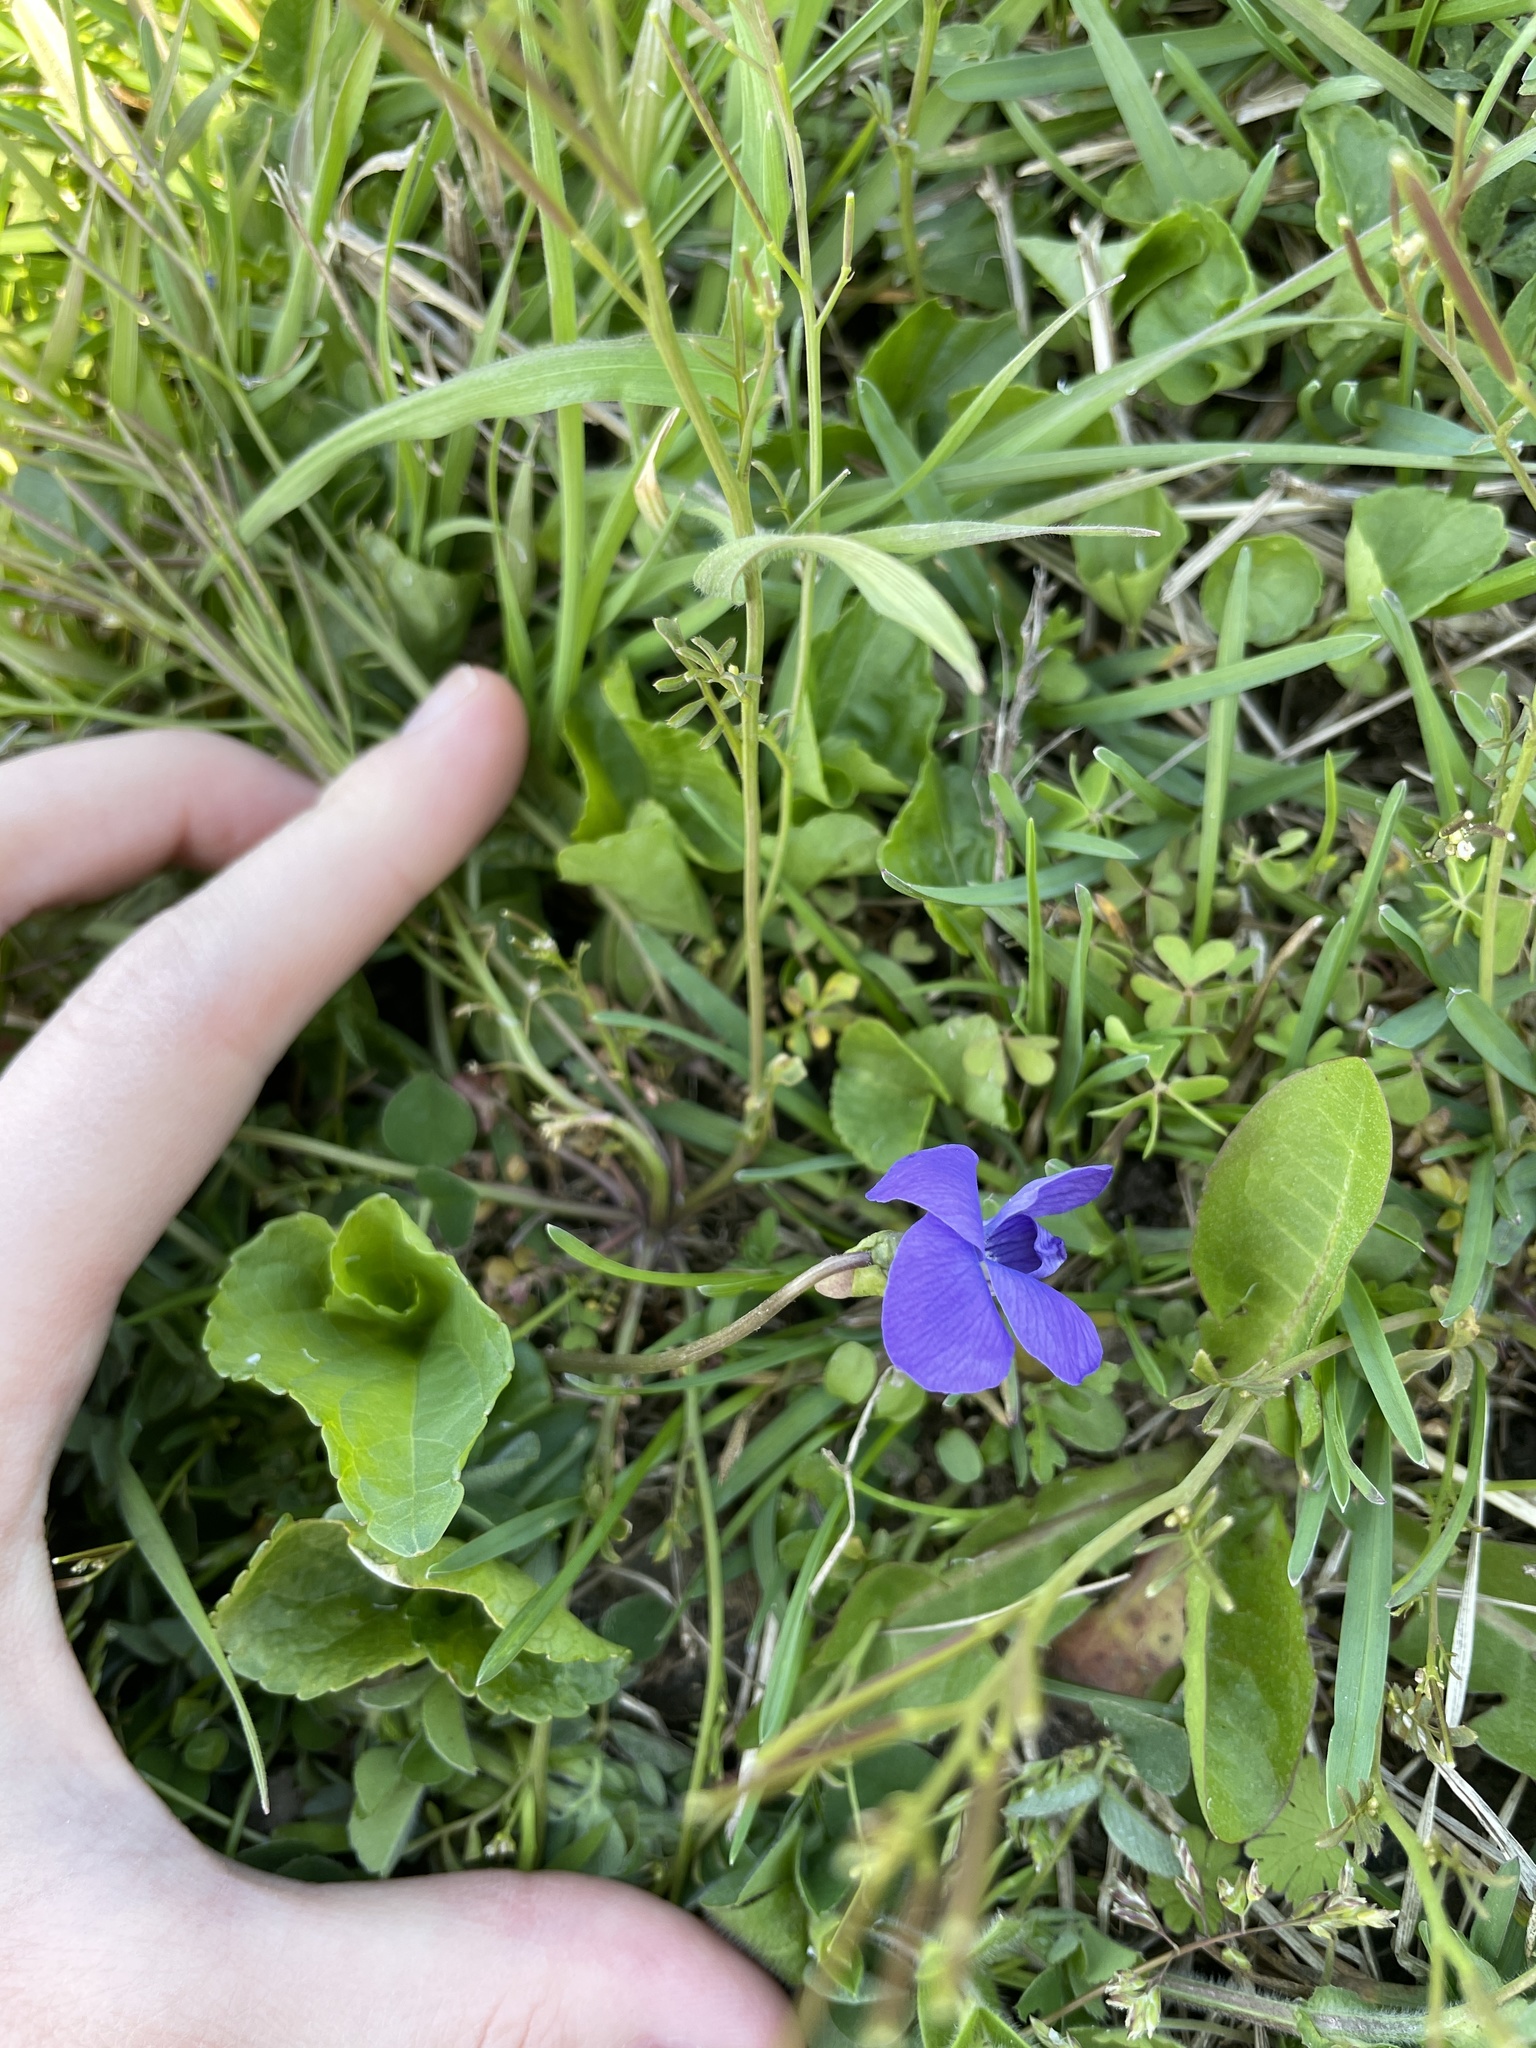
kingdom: Plantae
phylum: Tracheophyta
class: Magnoliopsida
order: Malpighiales
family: Violaceae
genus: Viola
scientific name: Viola sororia
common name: Dooryard violet
